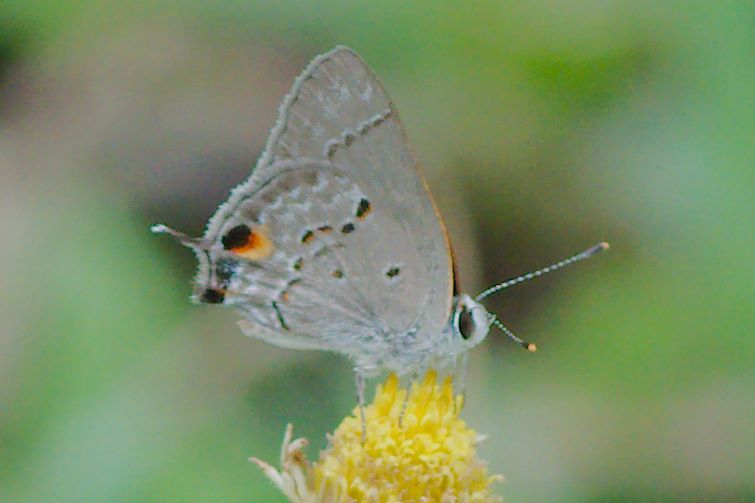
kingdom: Animalia
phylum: Arthropoda
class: Insecta
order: Lepidoptera
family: Lycaenidae
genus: Callicista
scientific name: Callicista columella
